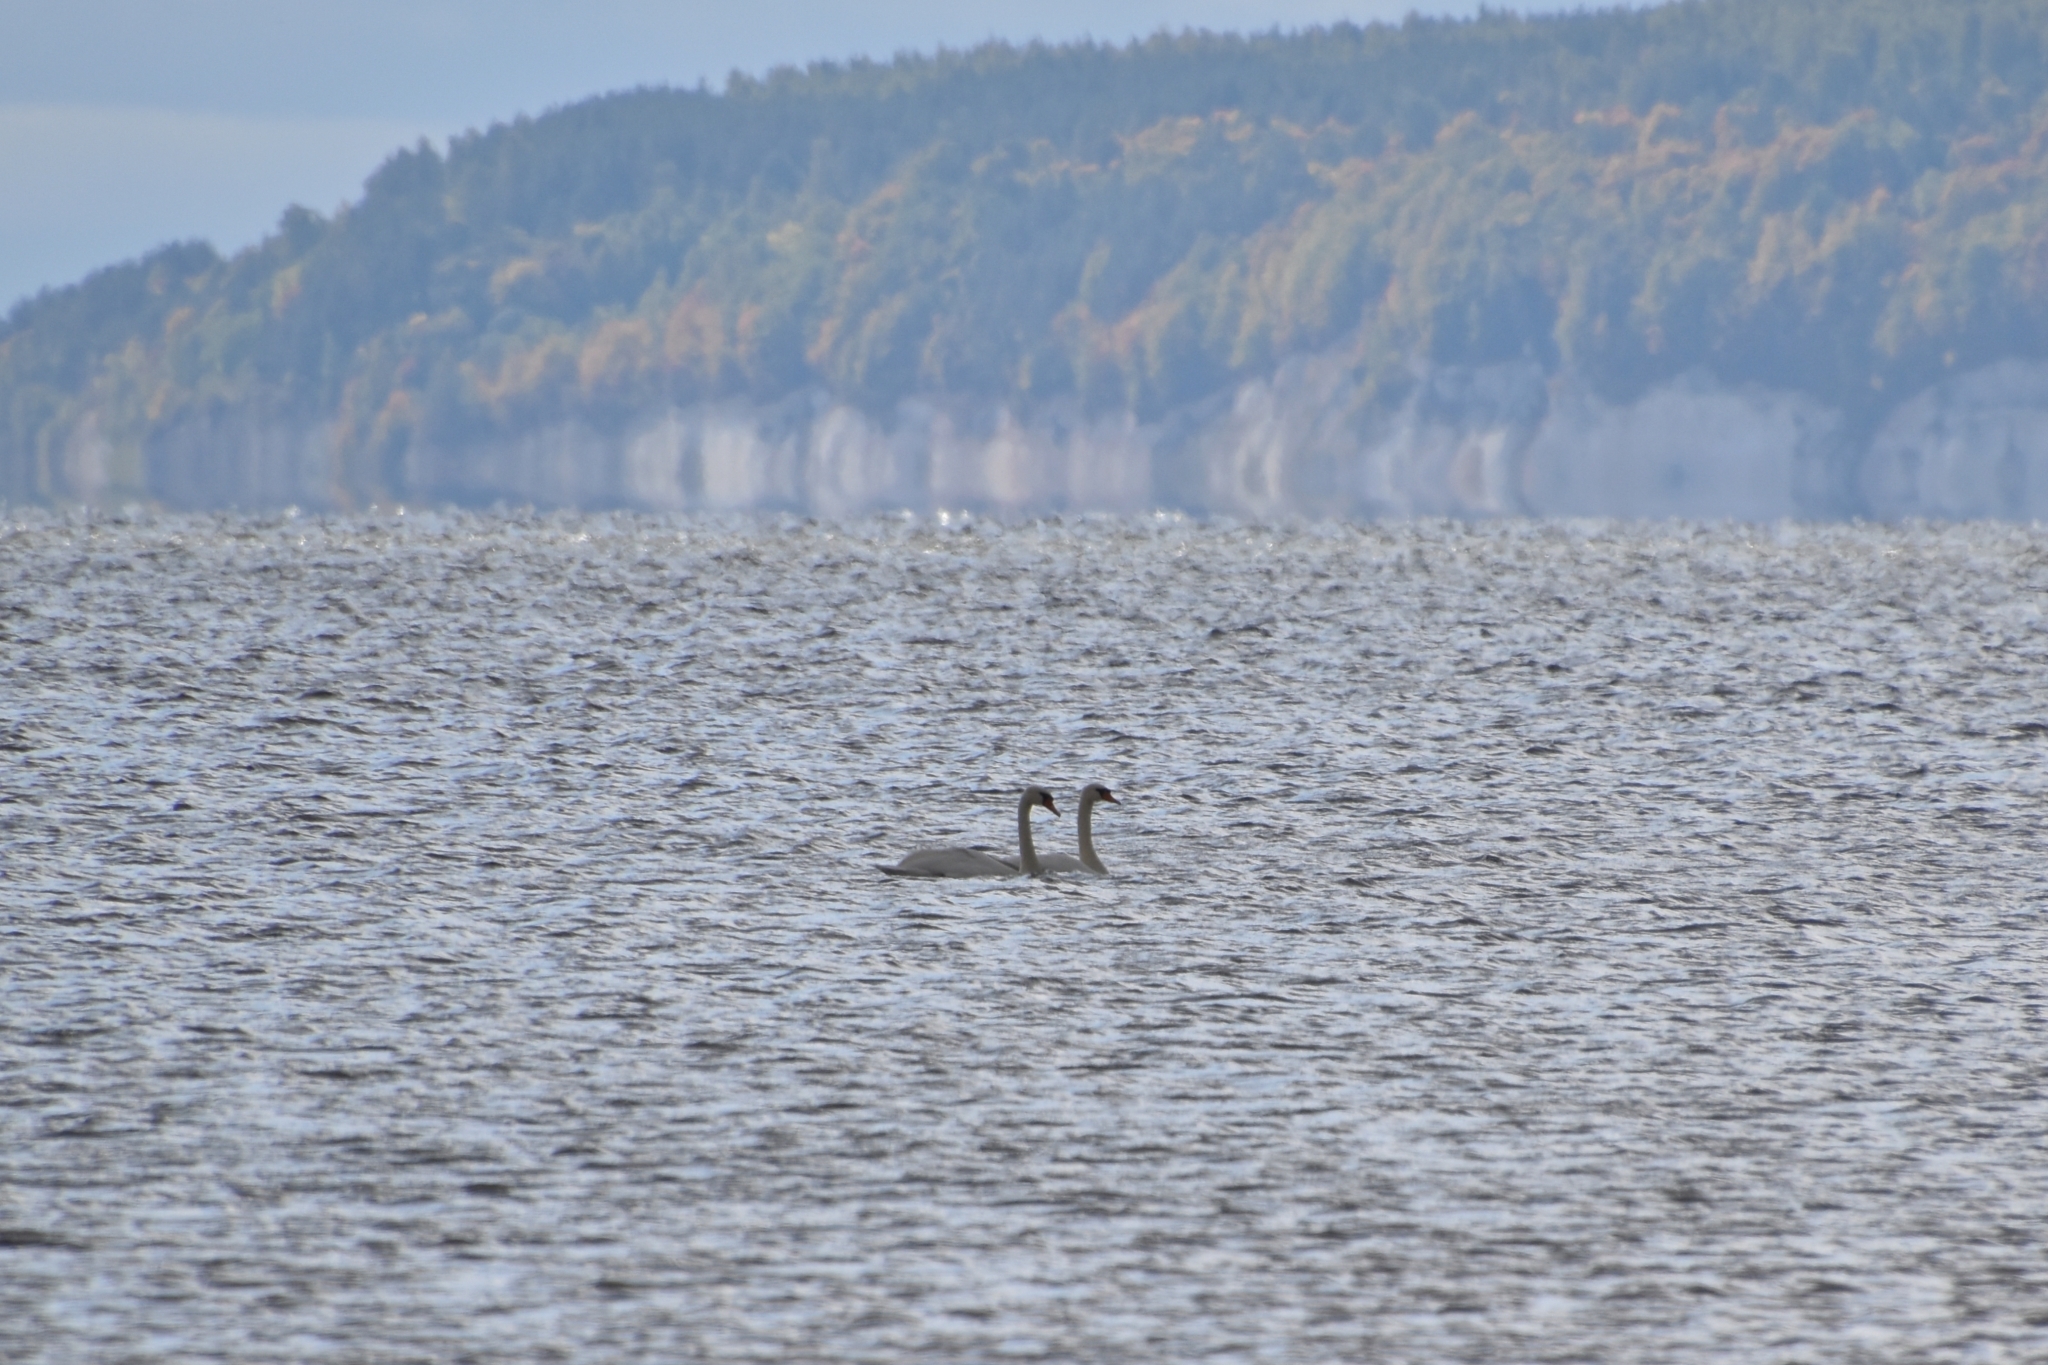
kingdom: Animalia
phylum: Chordata
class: Aves
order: Anseriformes
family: Anatidae
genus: Cygnus
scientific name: Cygnus olor
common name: Mute swan
